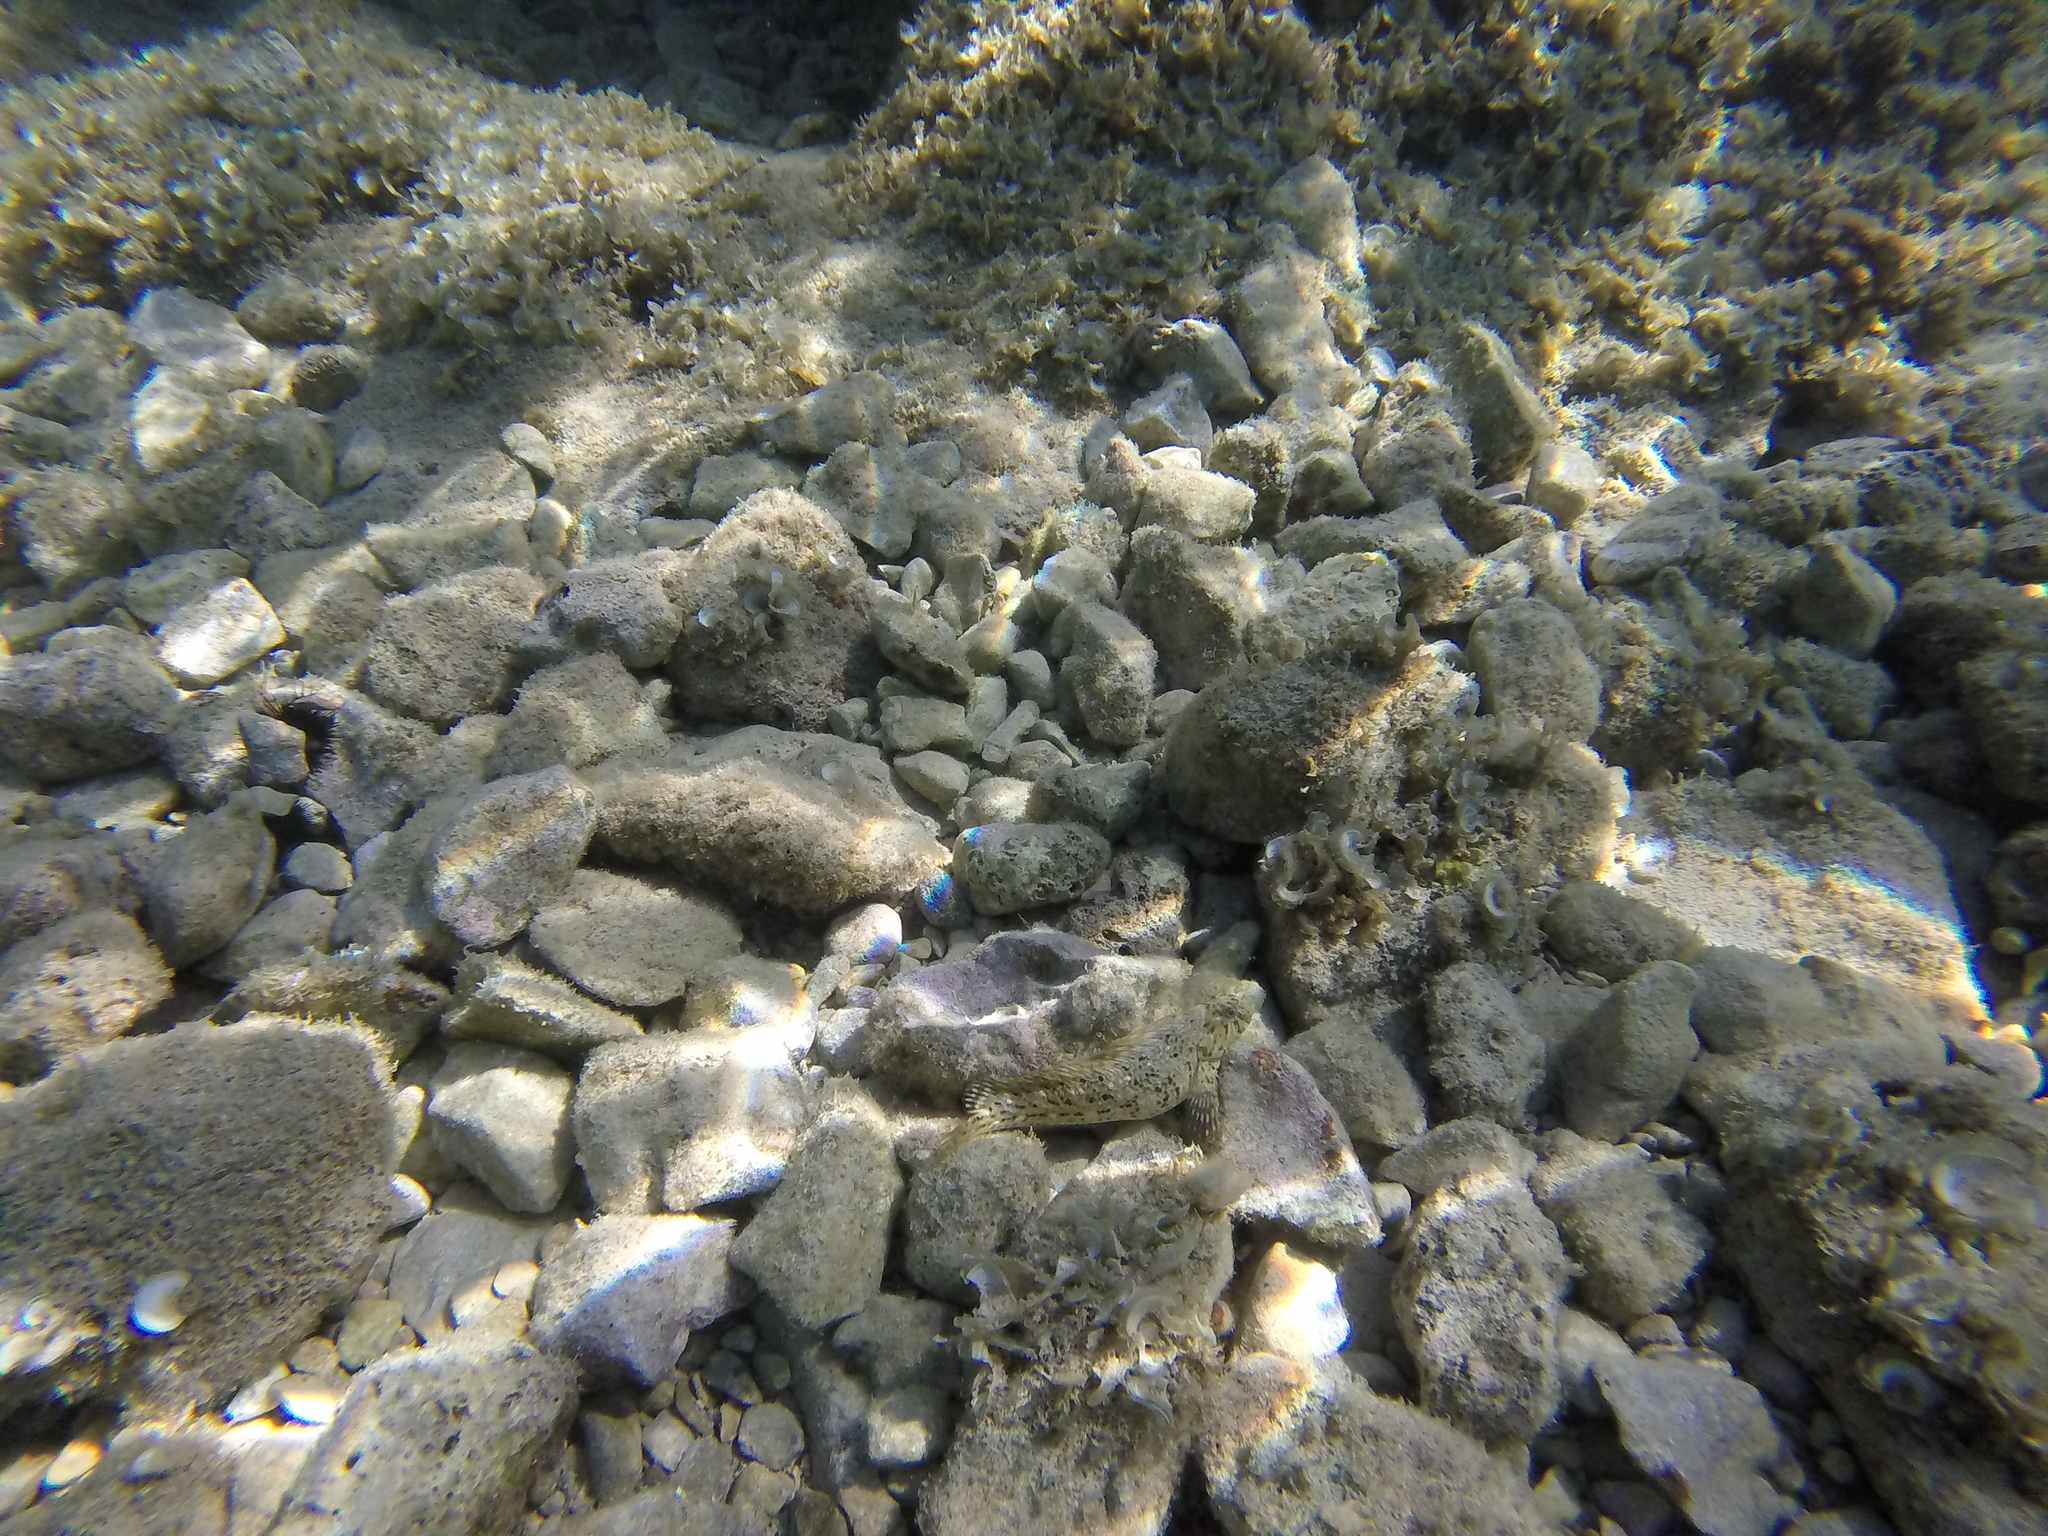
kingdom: Animalia
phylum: Chordata
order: Perciformes
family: Blenniidae
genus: Parablennius
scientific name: Parablennius sanguinolentus
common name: Black sea blenny
